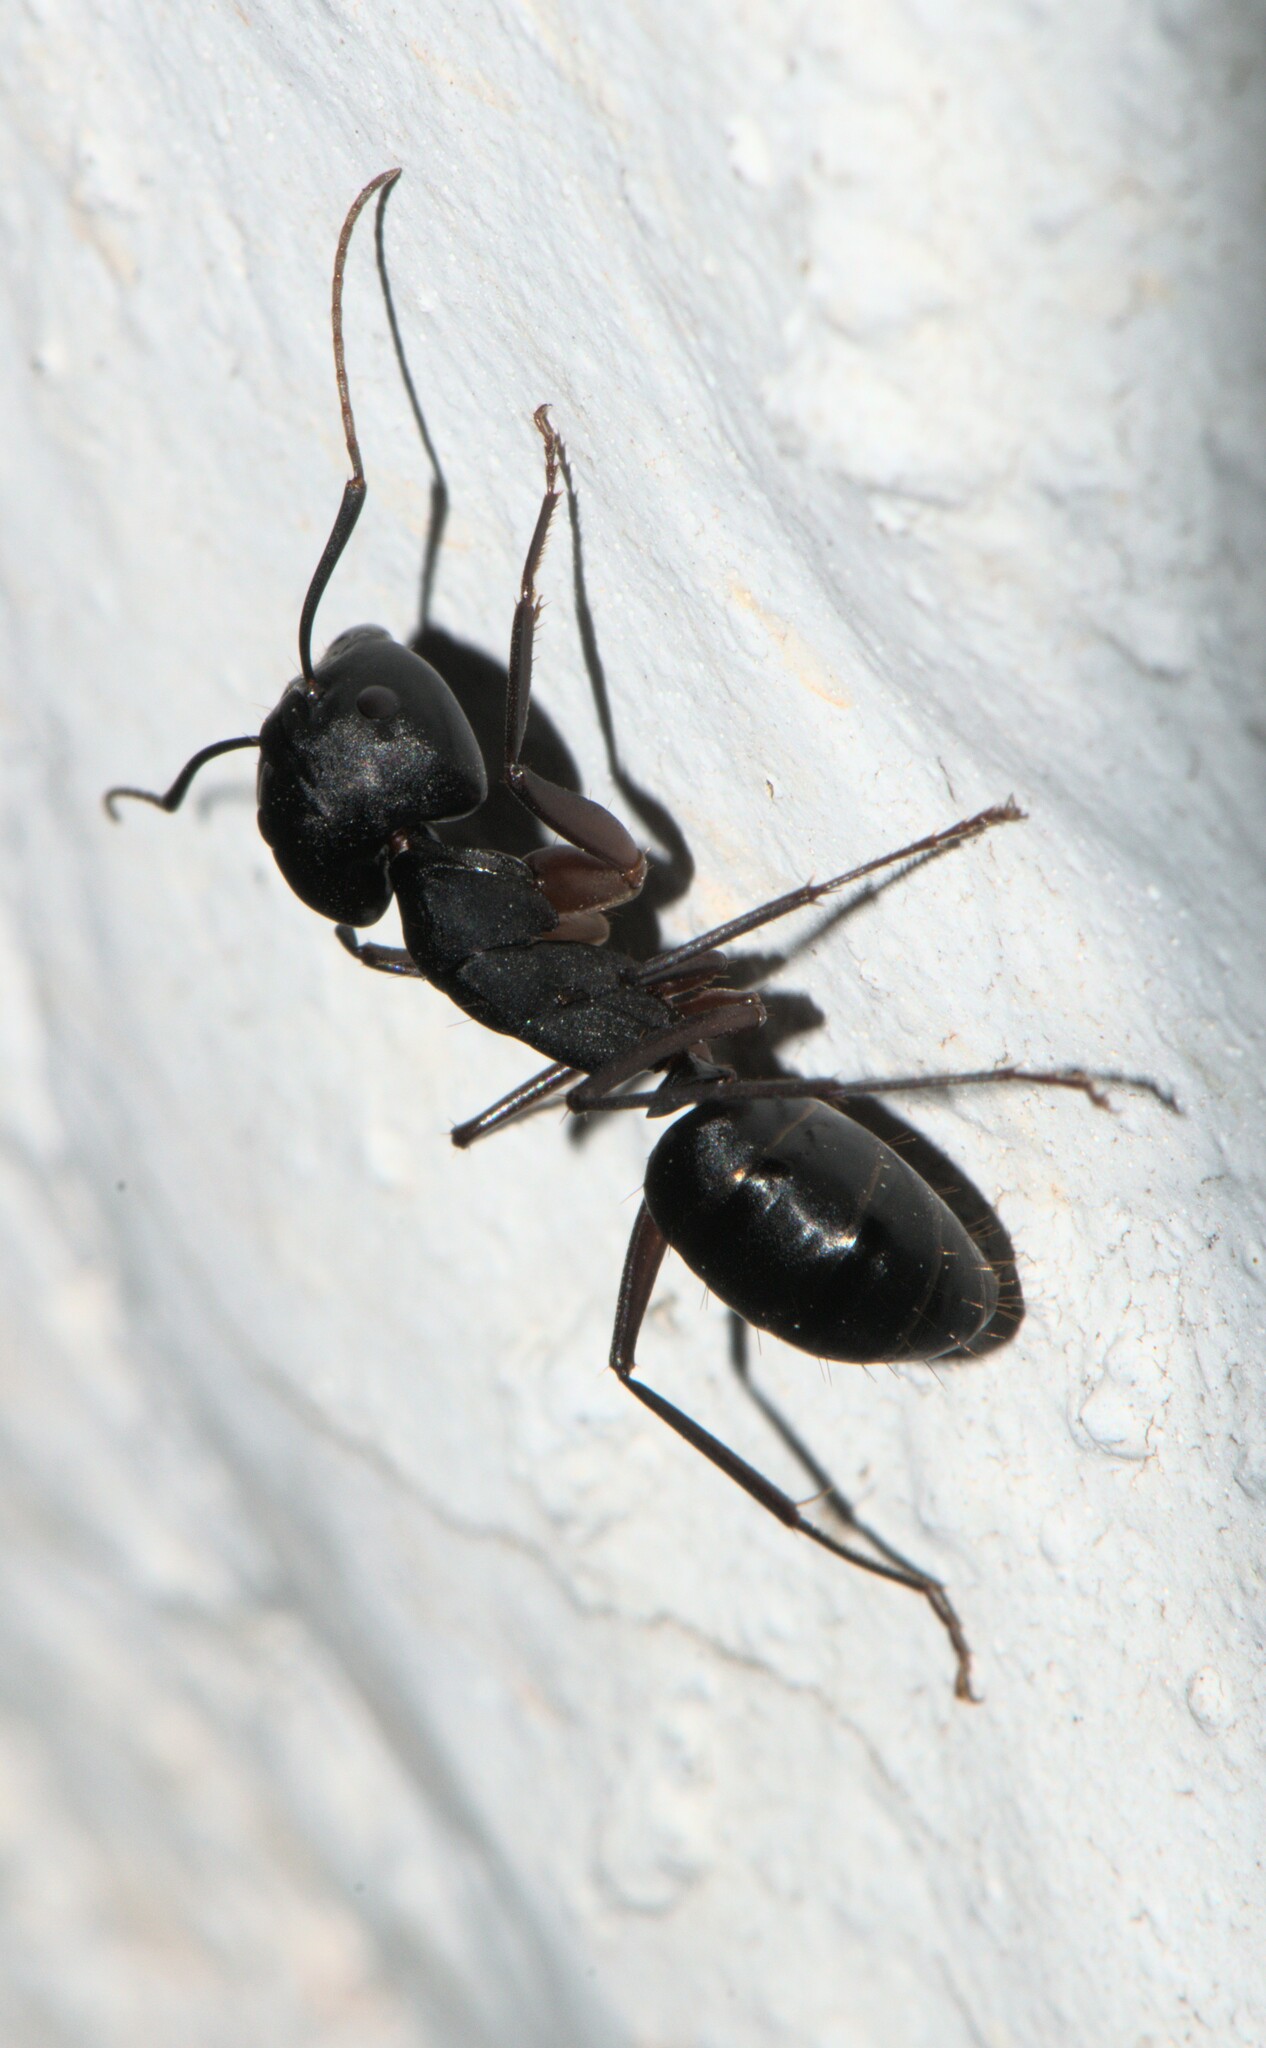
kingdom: Animalia
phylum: Arthropoda
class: Insecta
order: Hymenoptera
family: Formicidae
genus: Camponotus
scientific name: Camponotus compressus
